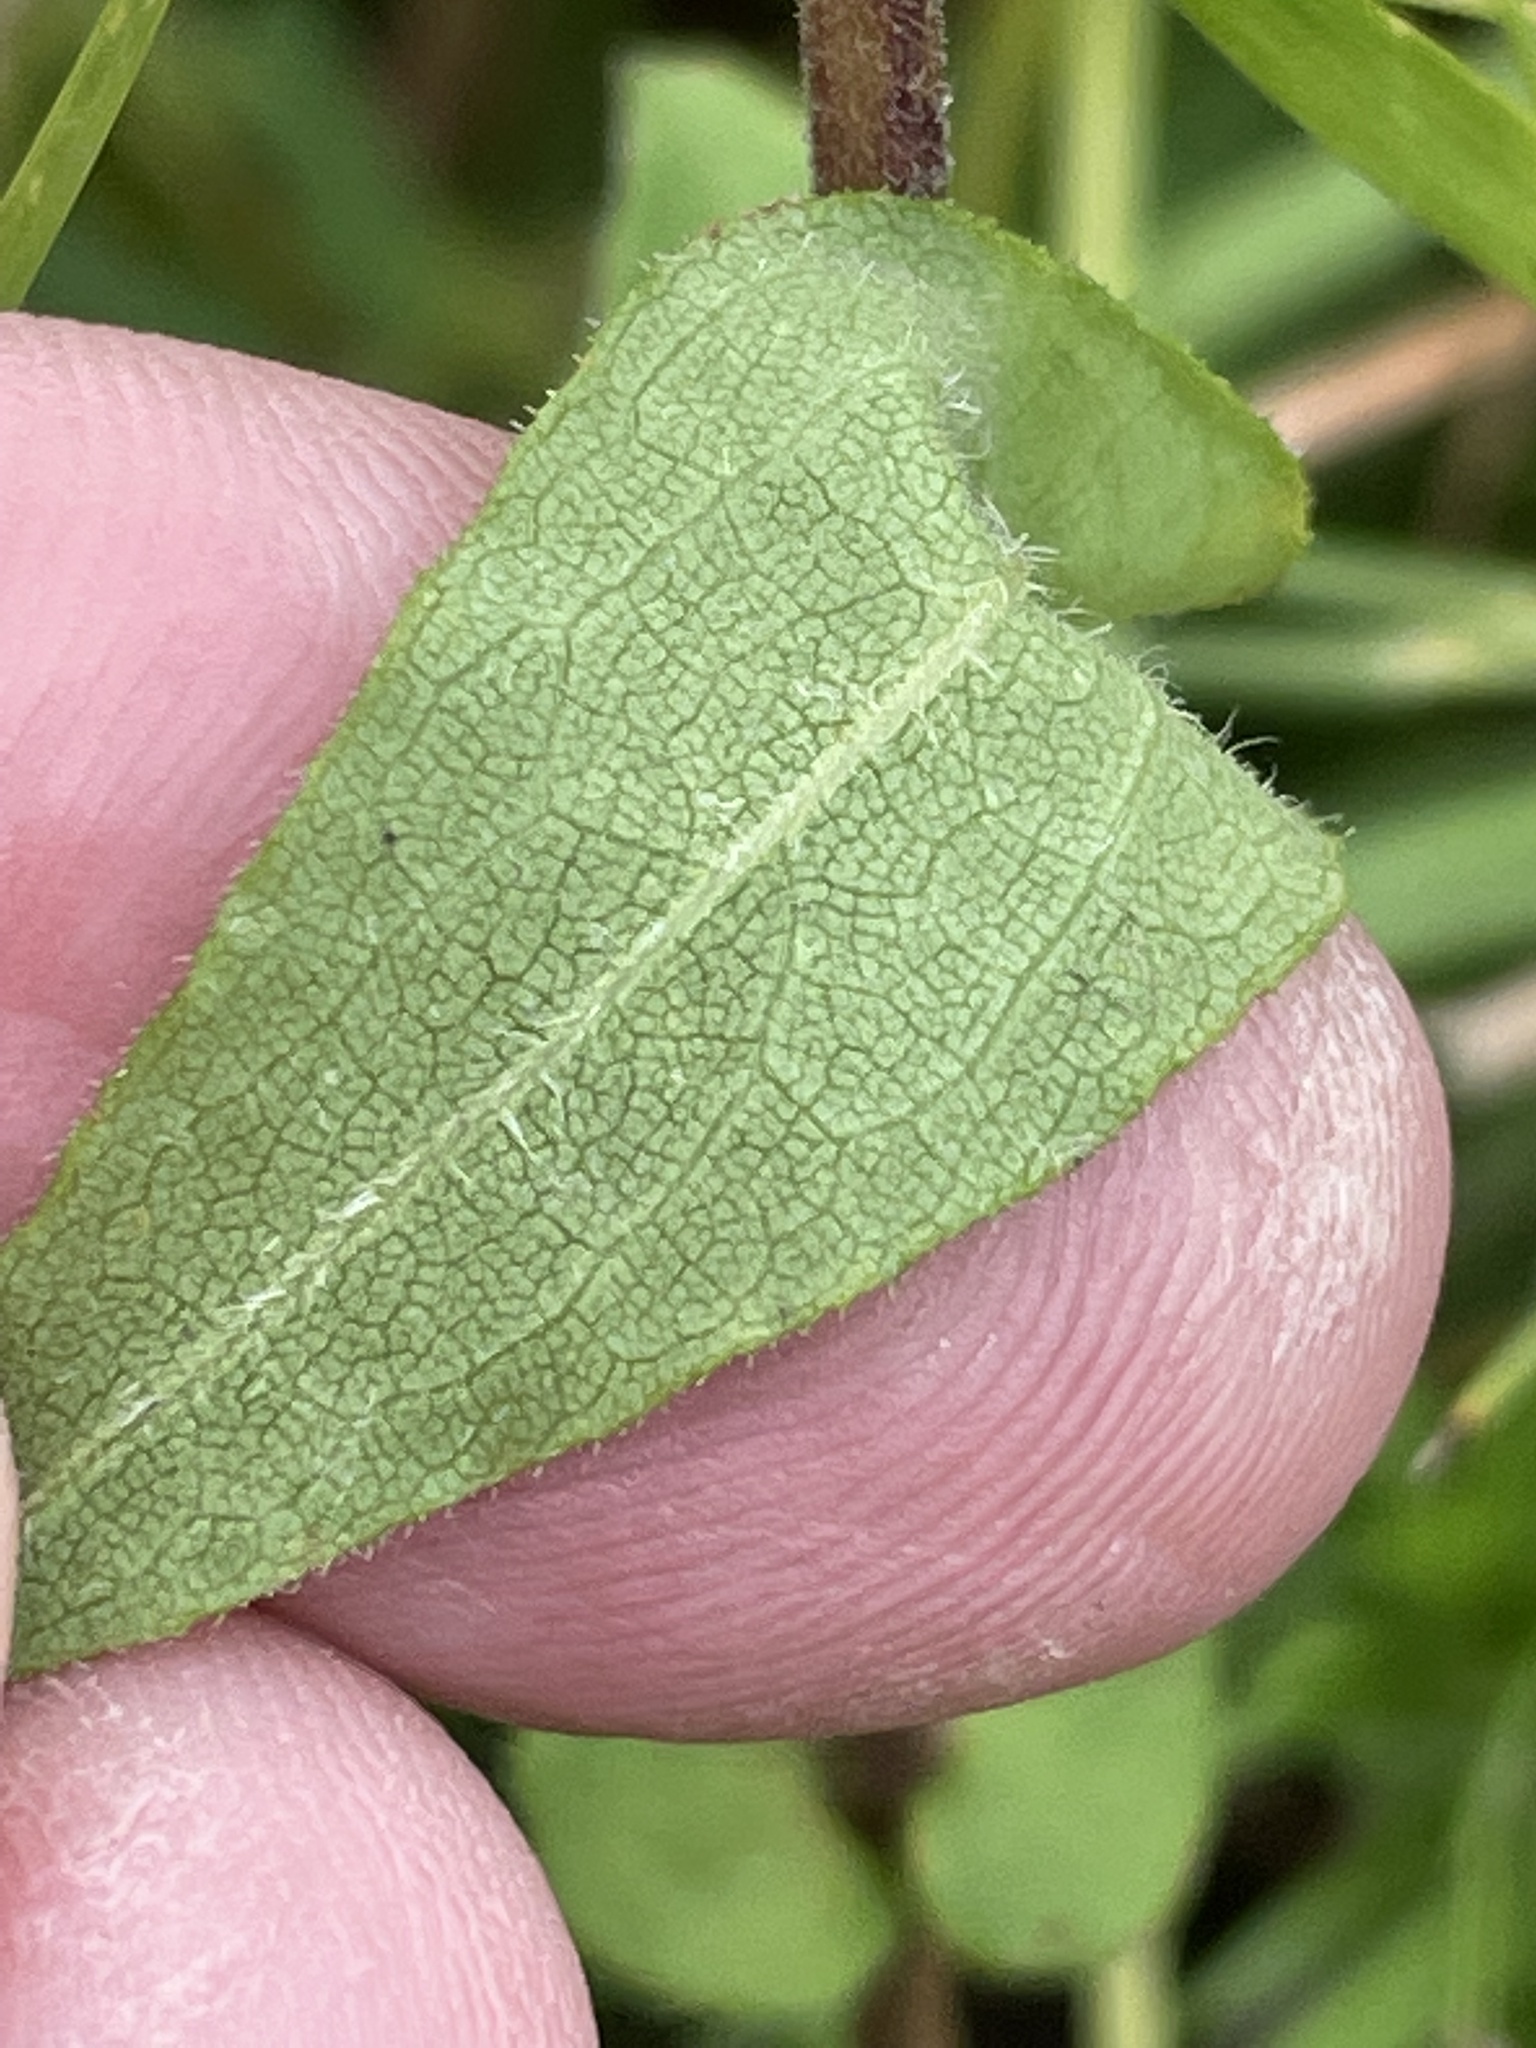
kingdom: Plantae
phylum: Tracheophyta
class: Magnoliopsida
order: Asterales
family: Asteraceae
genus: Symphyotrichum
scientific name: Symphyotrichum patens
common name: Late purple aster
